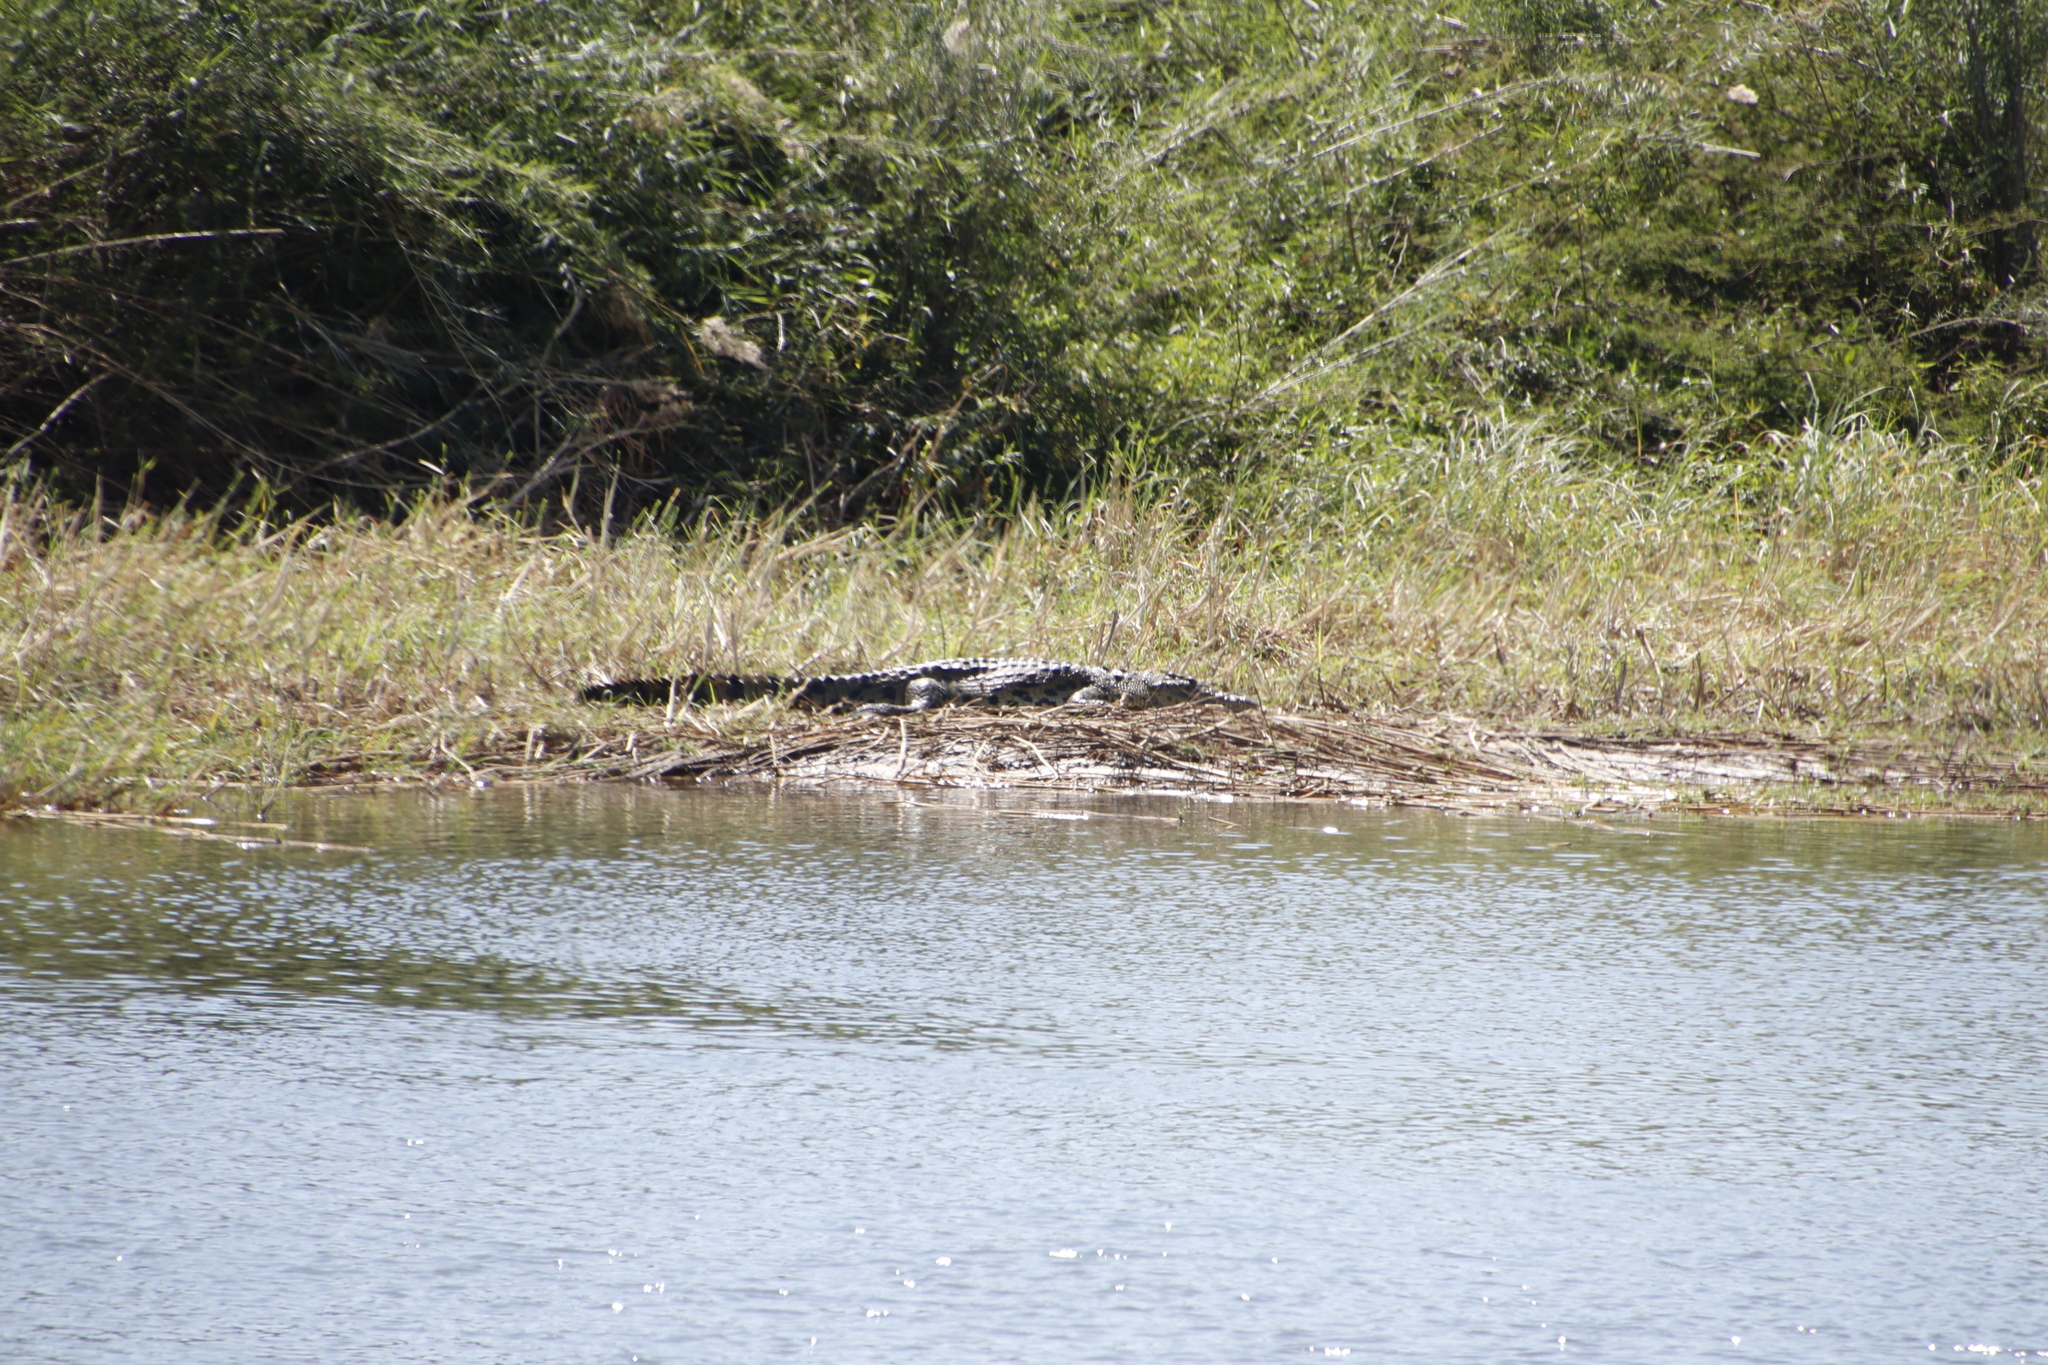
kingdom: Animalia
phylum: Chordata
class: Crocodylia
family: Crocodylidae
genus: Crocodylus
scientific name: Crocodylus niloticus
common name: Nile crocodile
